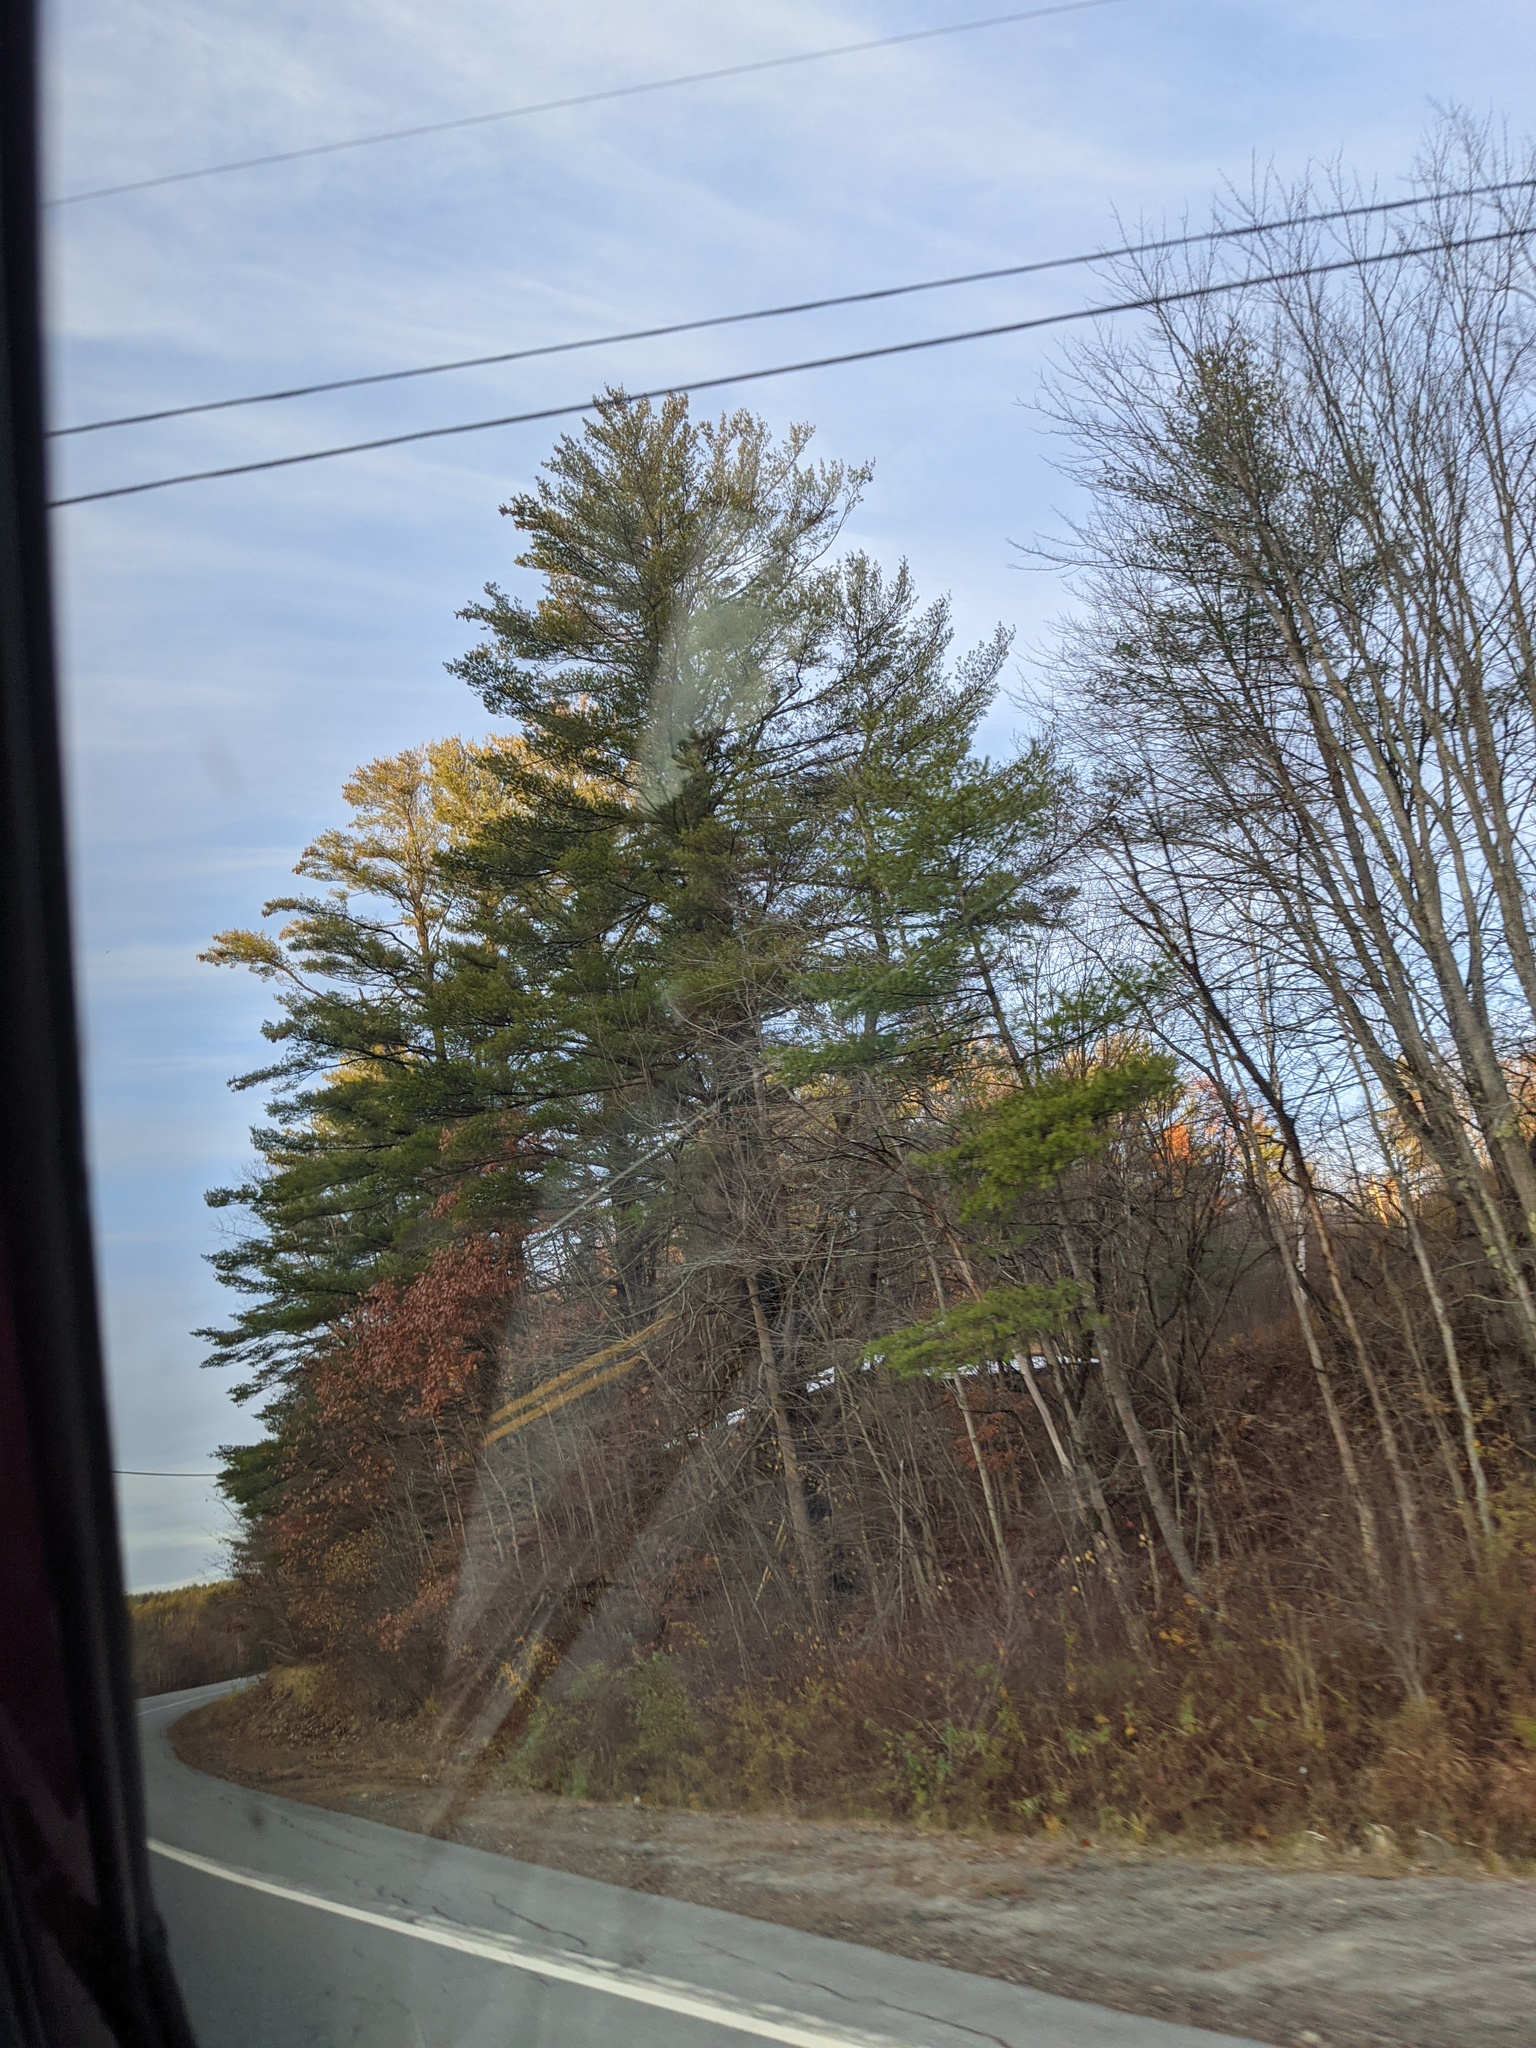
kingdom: Plantae
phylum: Tracheophyta
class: Pinopsida
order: Pinales
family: Pinaceae
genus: Pinus
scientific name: Pinus strobus
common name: Weymouth pine
